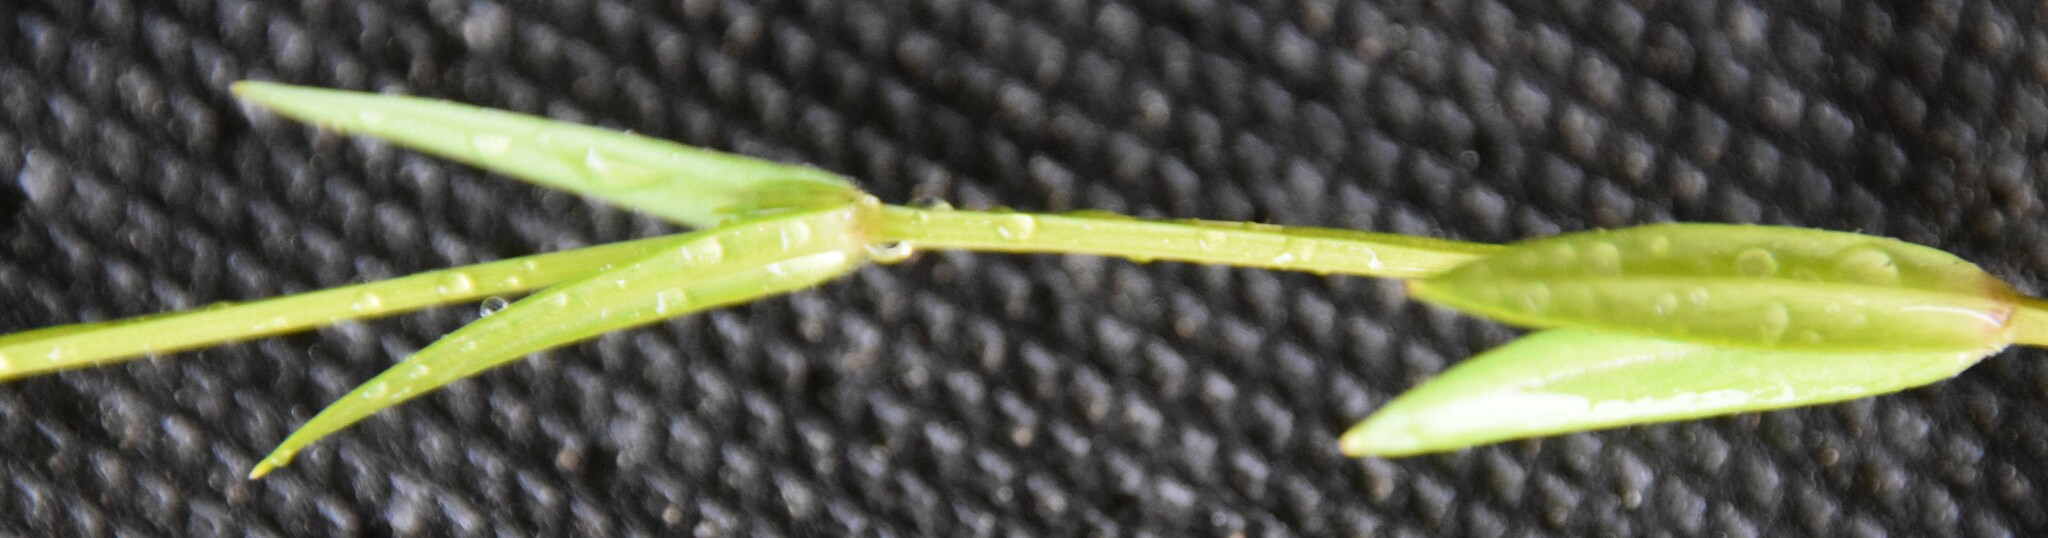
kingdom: Plantae
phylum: Tracheophyta
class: Magnoliopsida
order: Caryophyllales
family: Caryophyllaceae
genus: Stellaria
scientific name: Stellaria graminea
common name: Grass-like starwort
